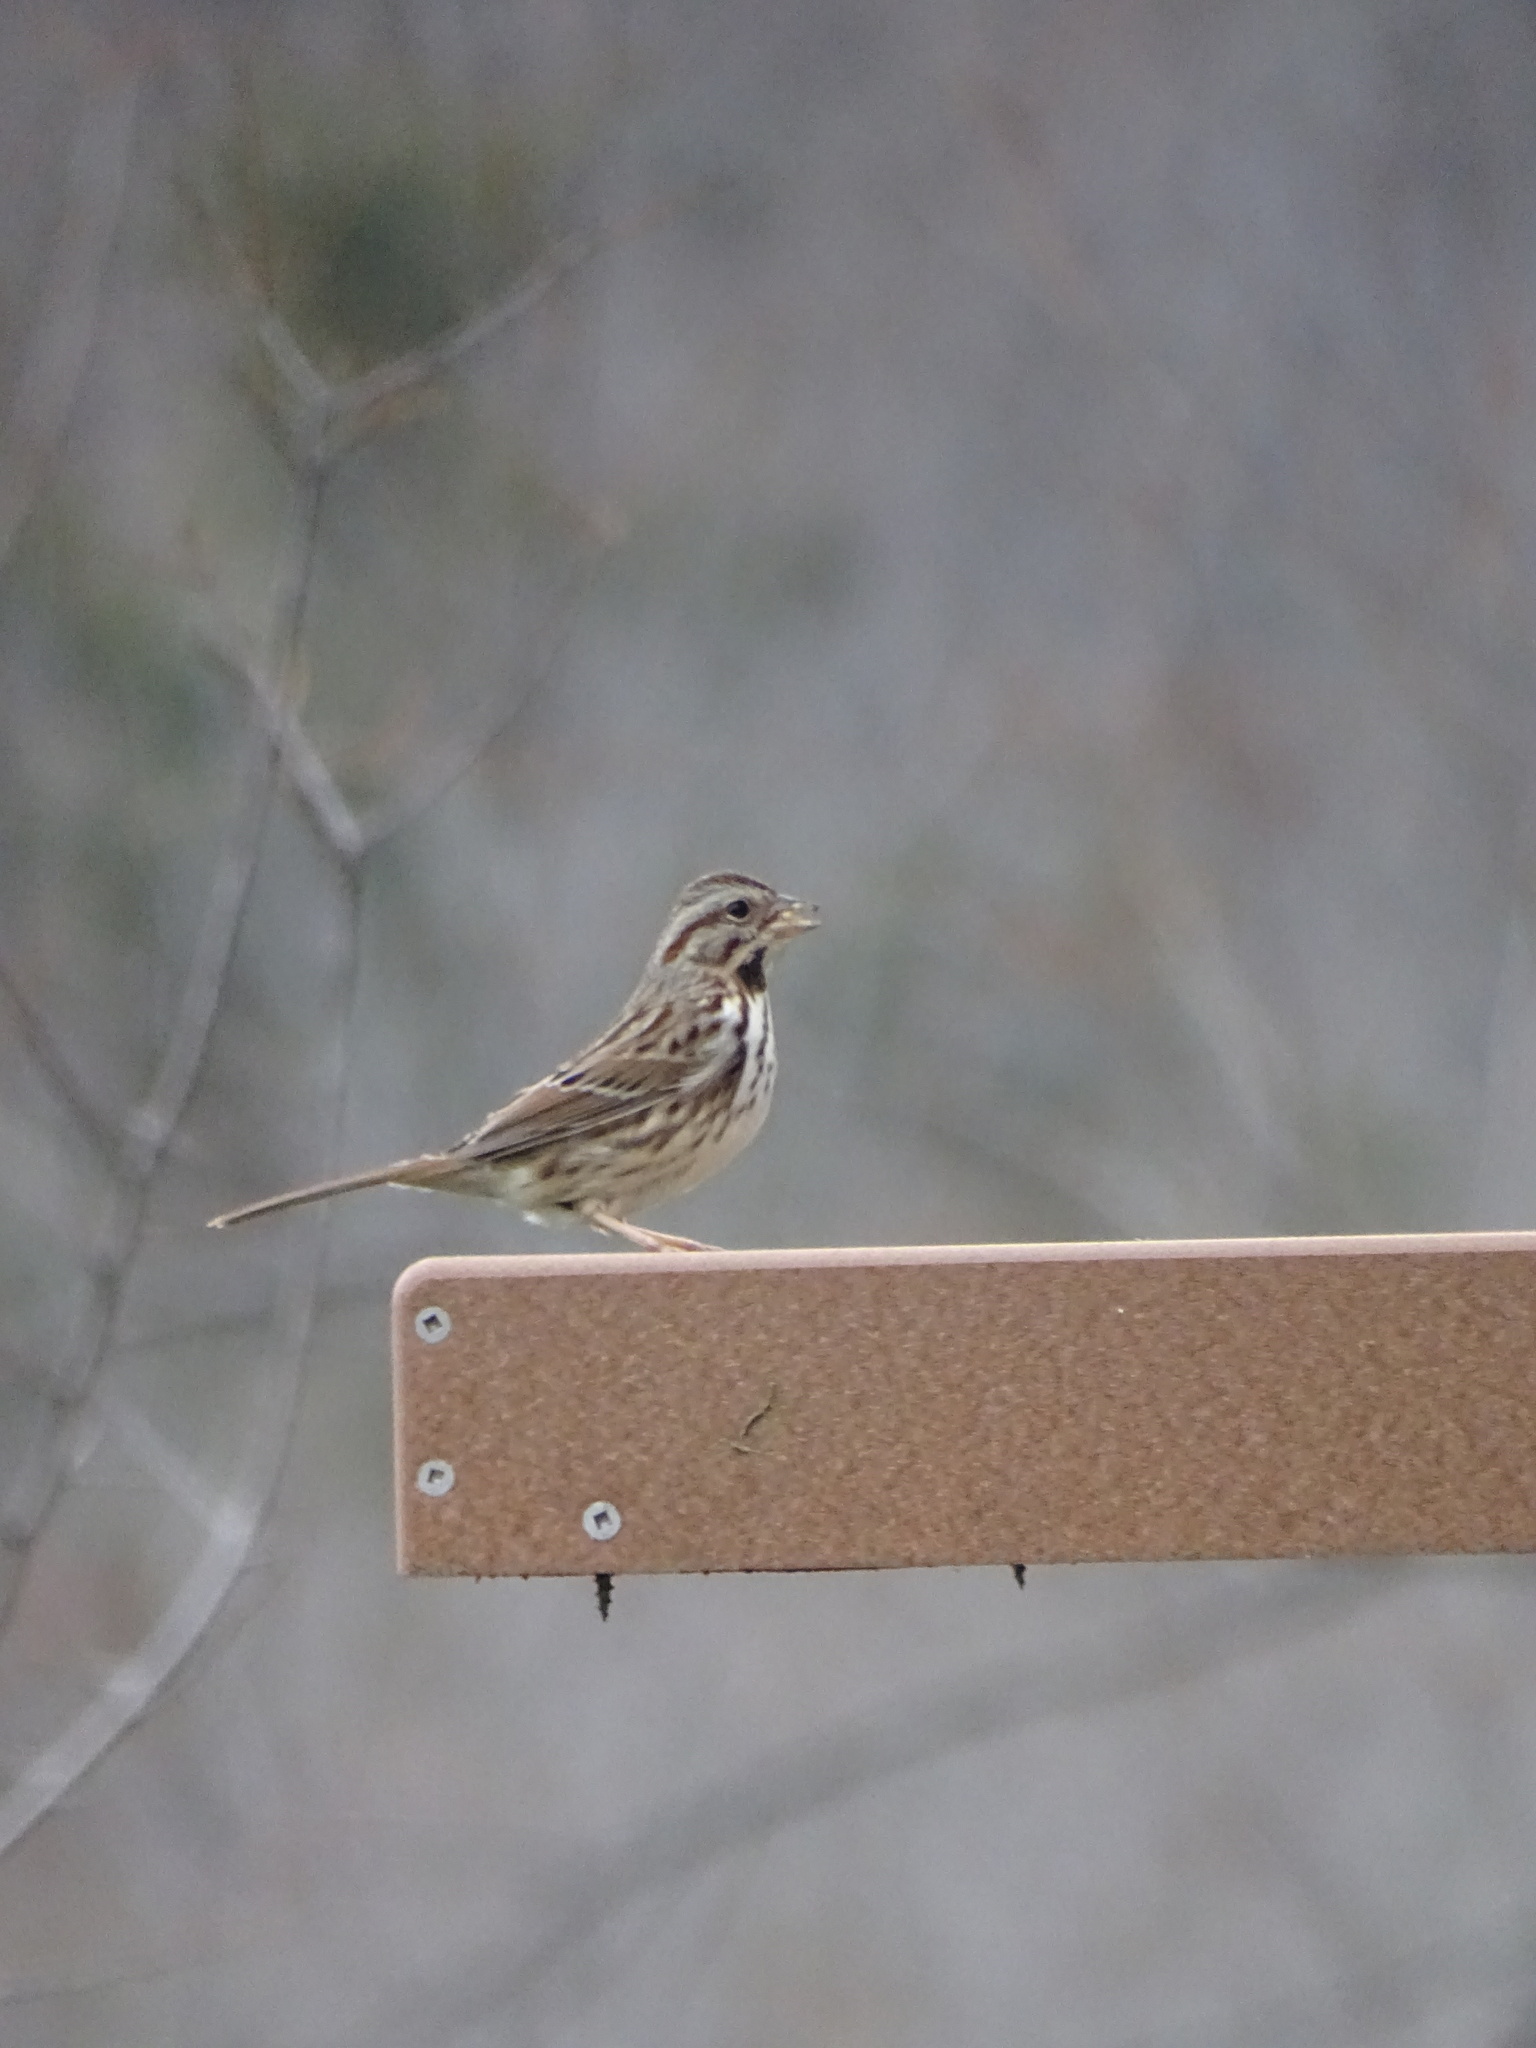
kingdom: Animalia
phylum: Chordata
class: Aves
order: Passeriformes
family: Passerellidae
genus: Melospiza
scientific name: Melospiza melodia
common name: Song sparrow
